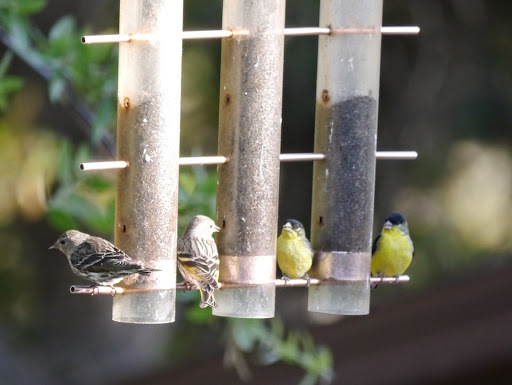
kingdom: Animalia
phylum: Chordata
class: Aves
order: Passeriformes
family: Fringillidae
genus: Spinus
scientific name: Spinus psaltria
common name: Lesser goldfinch
